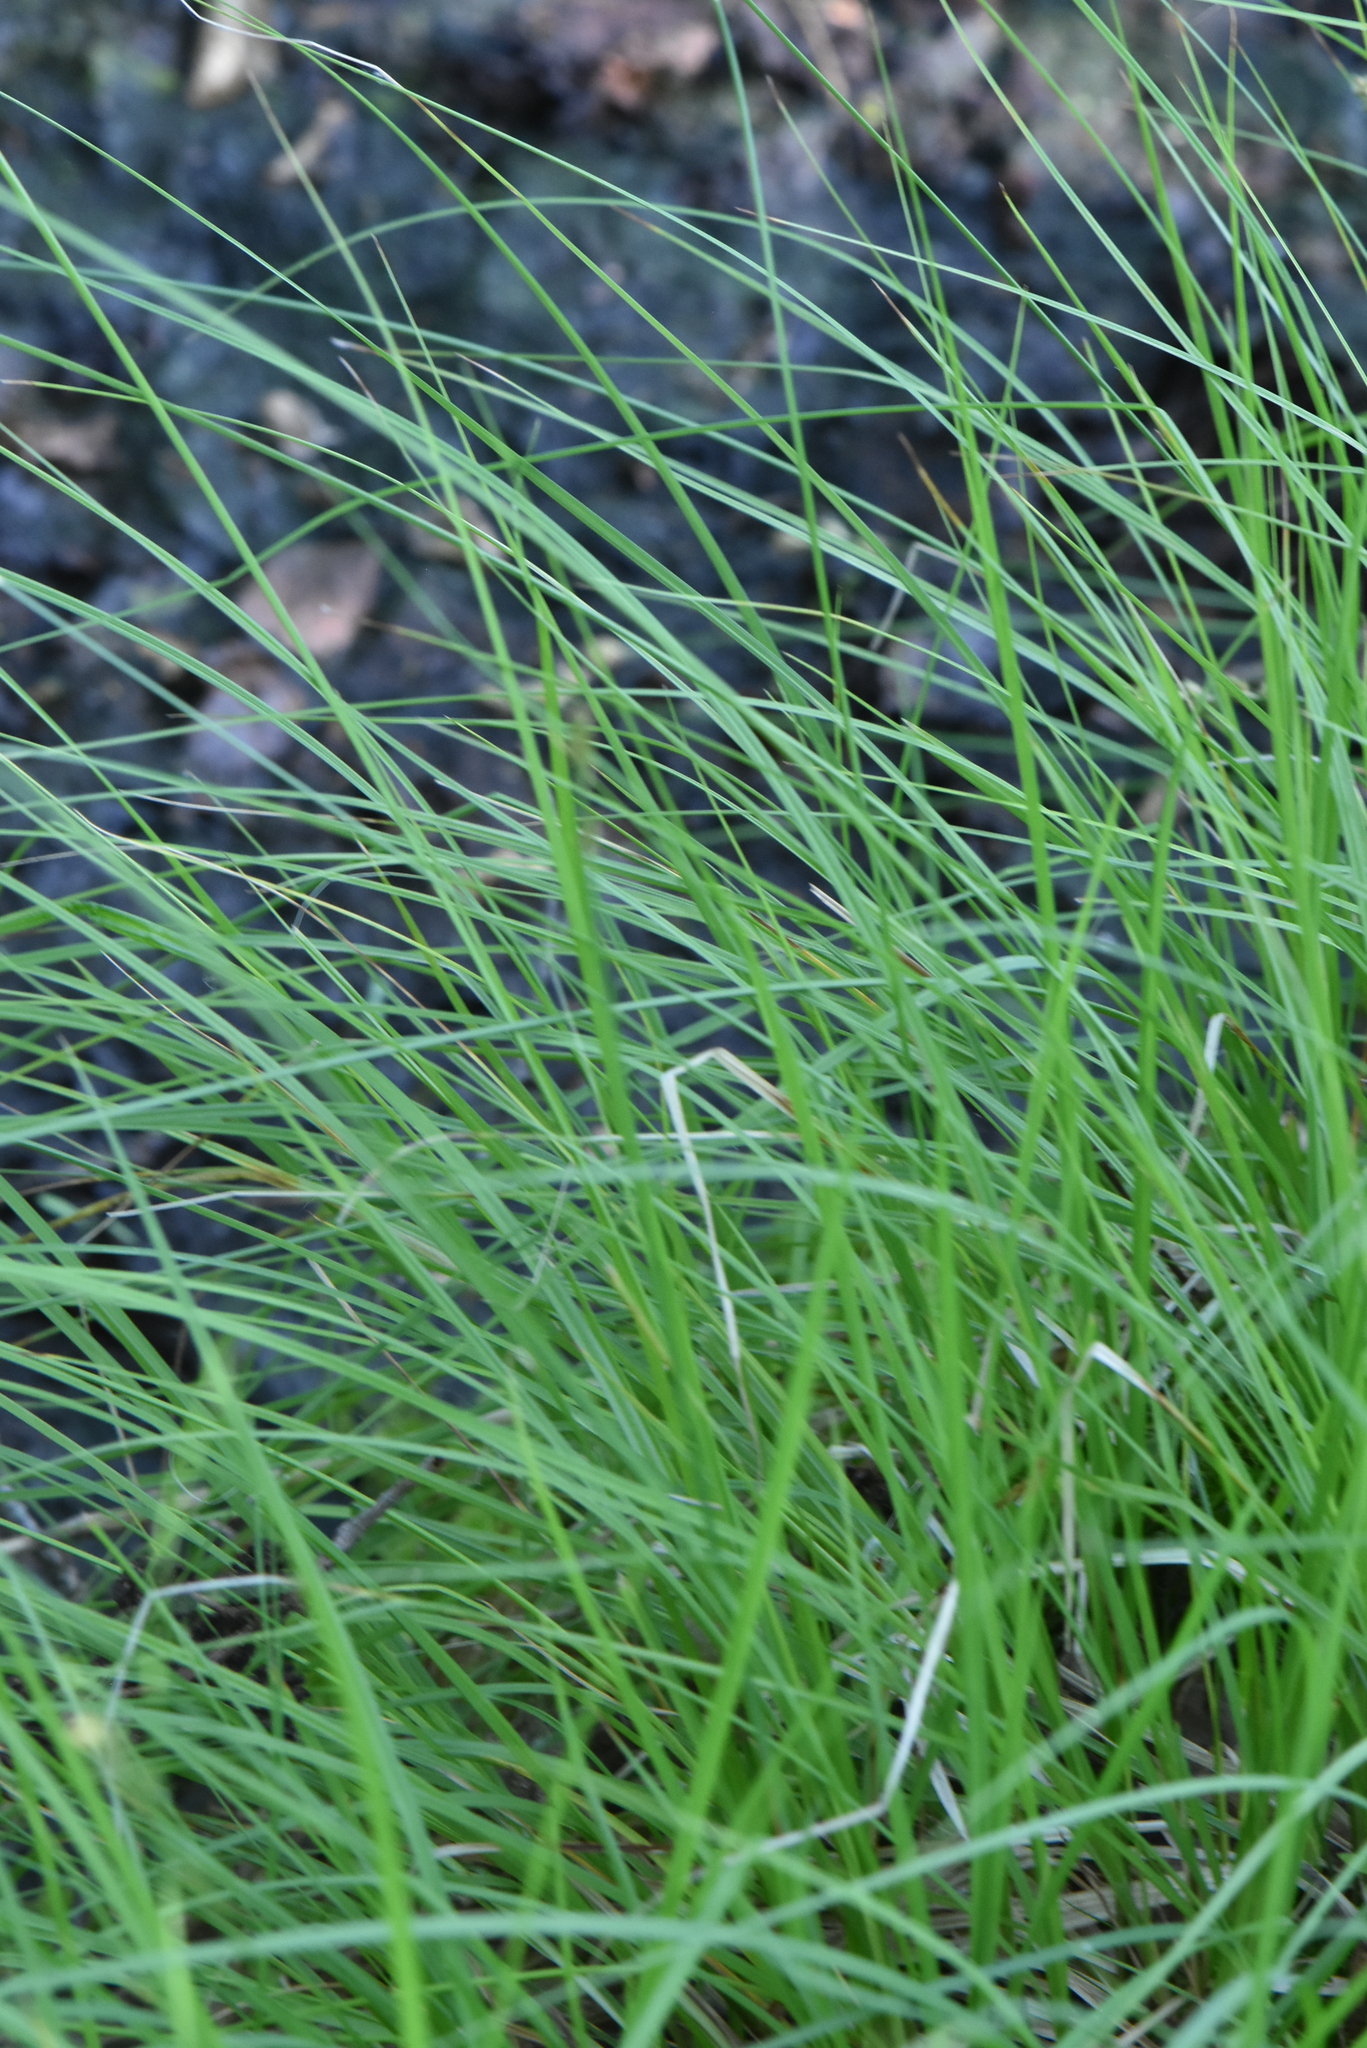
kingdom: Plantae
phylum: Tracheophyta
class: Liliopsida
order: Poales
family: Cyperaceae
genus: Carex
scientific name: Carex canescens
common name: White sedge
